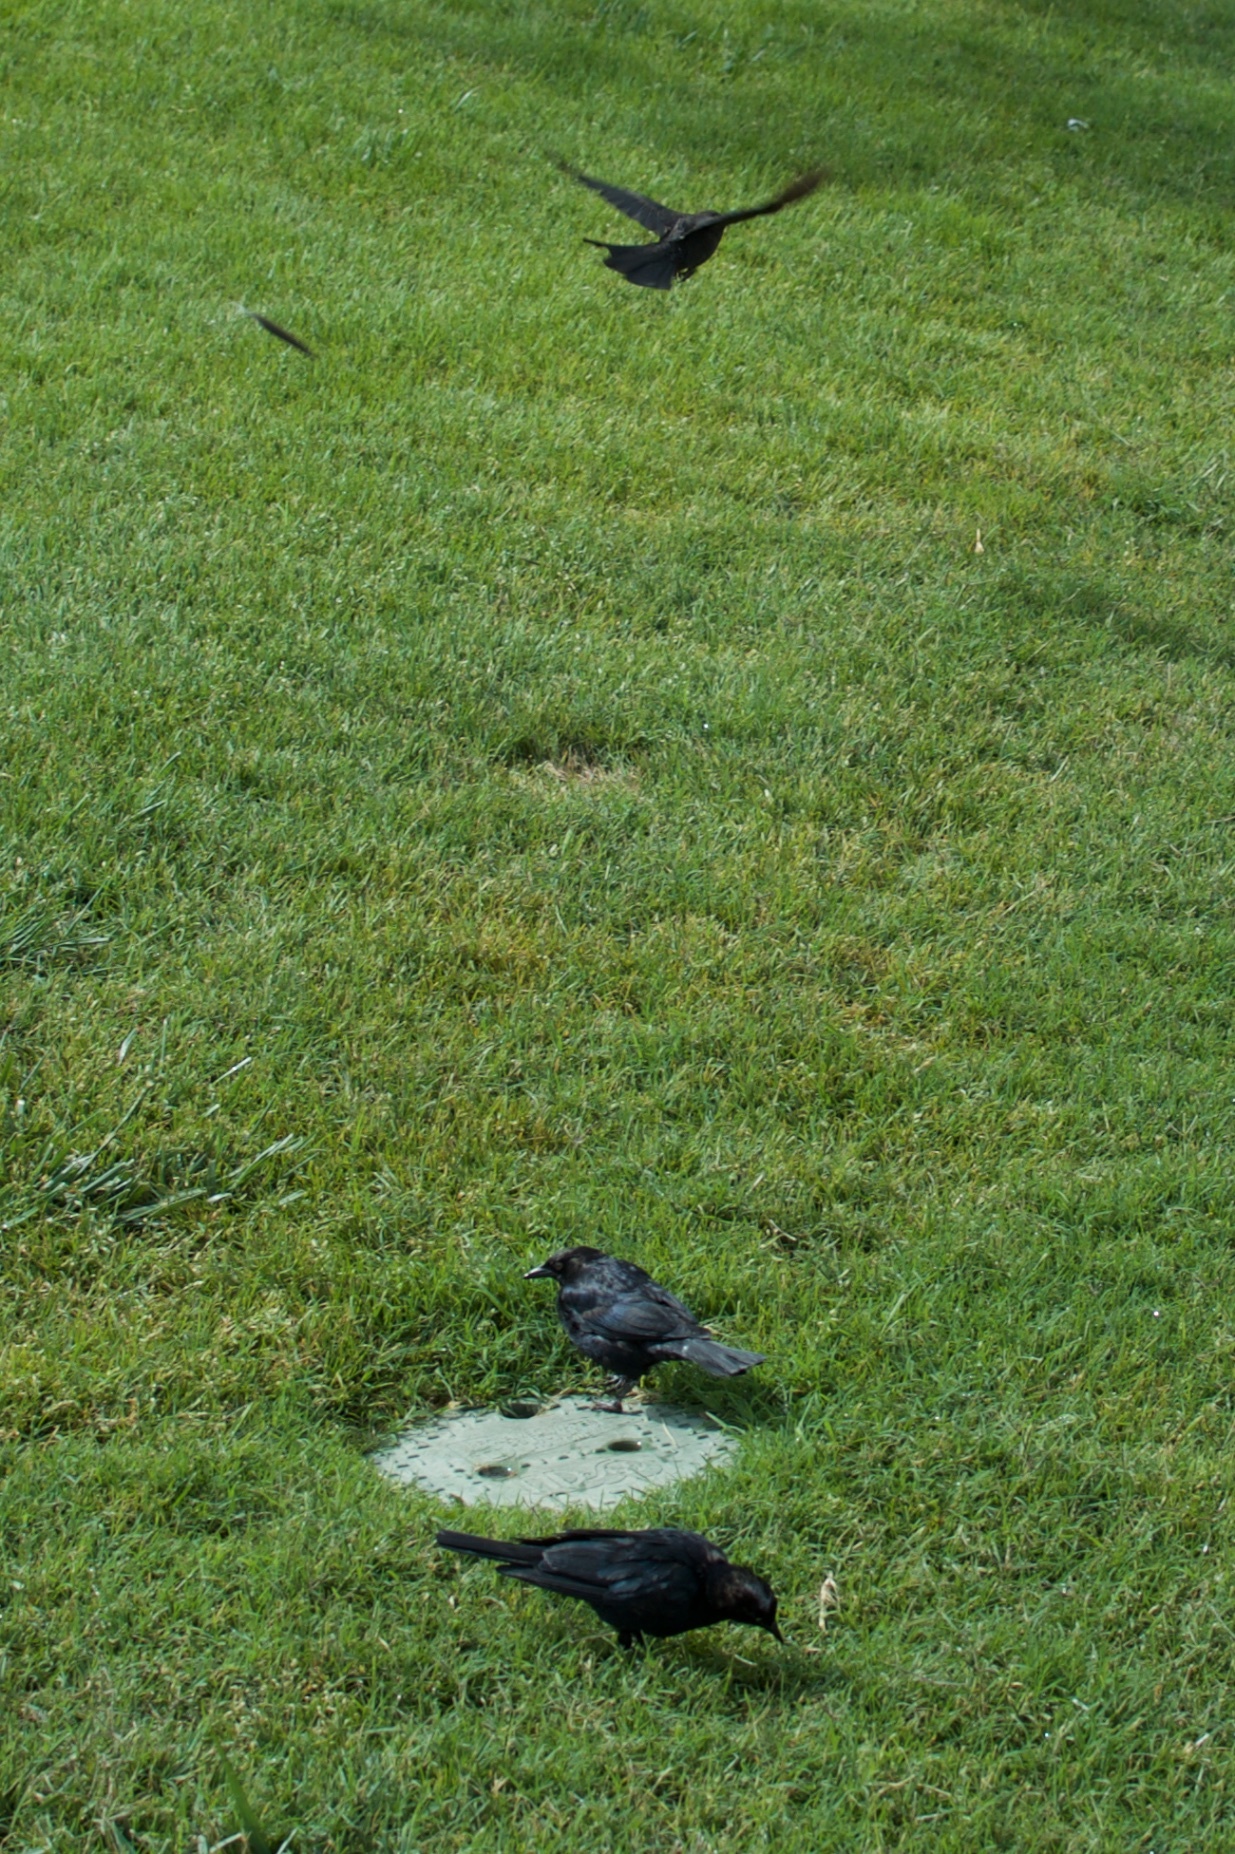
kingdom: Animalia
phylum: Chordata
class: Aves
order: Passeriformes
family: Icteridae
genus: Euphagus
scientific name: Euphagus cyanocephalus
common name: Brewer's blackbird
